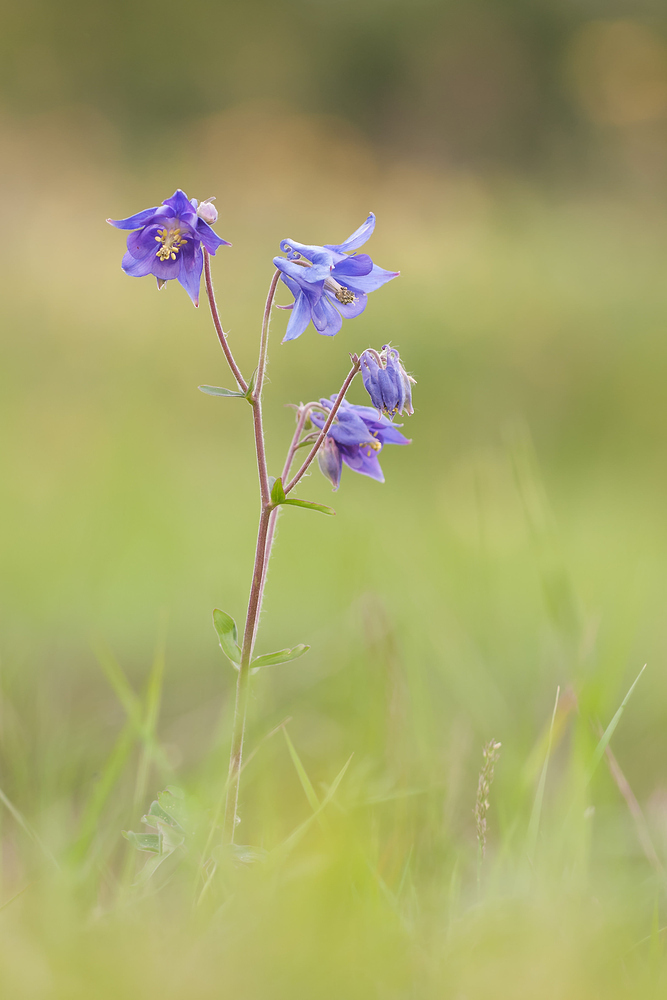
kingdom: Plantae
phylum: Tracheophyta
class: Magnoliopsida
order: Ranunculales
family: Ranunculaceae
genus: Aquilegia
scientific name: Aquilegia vulgaris
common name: Columbine
